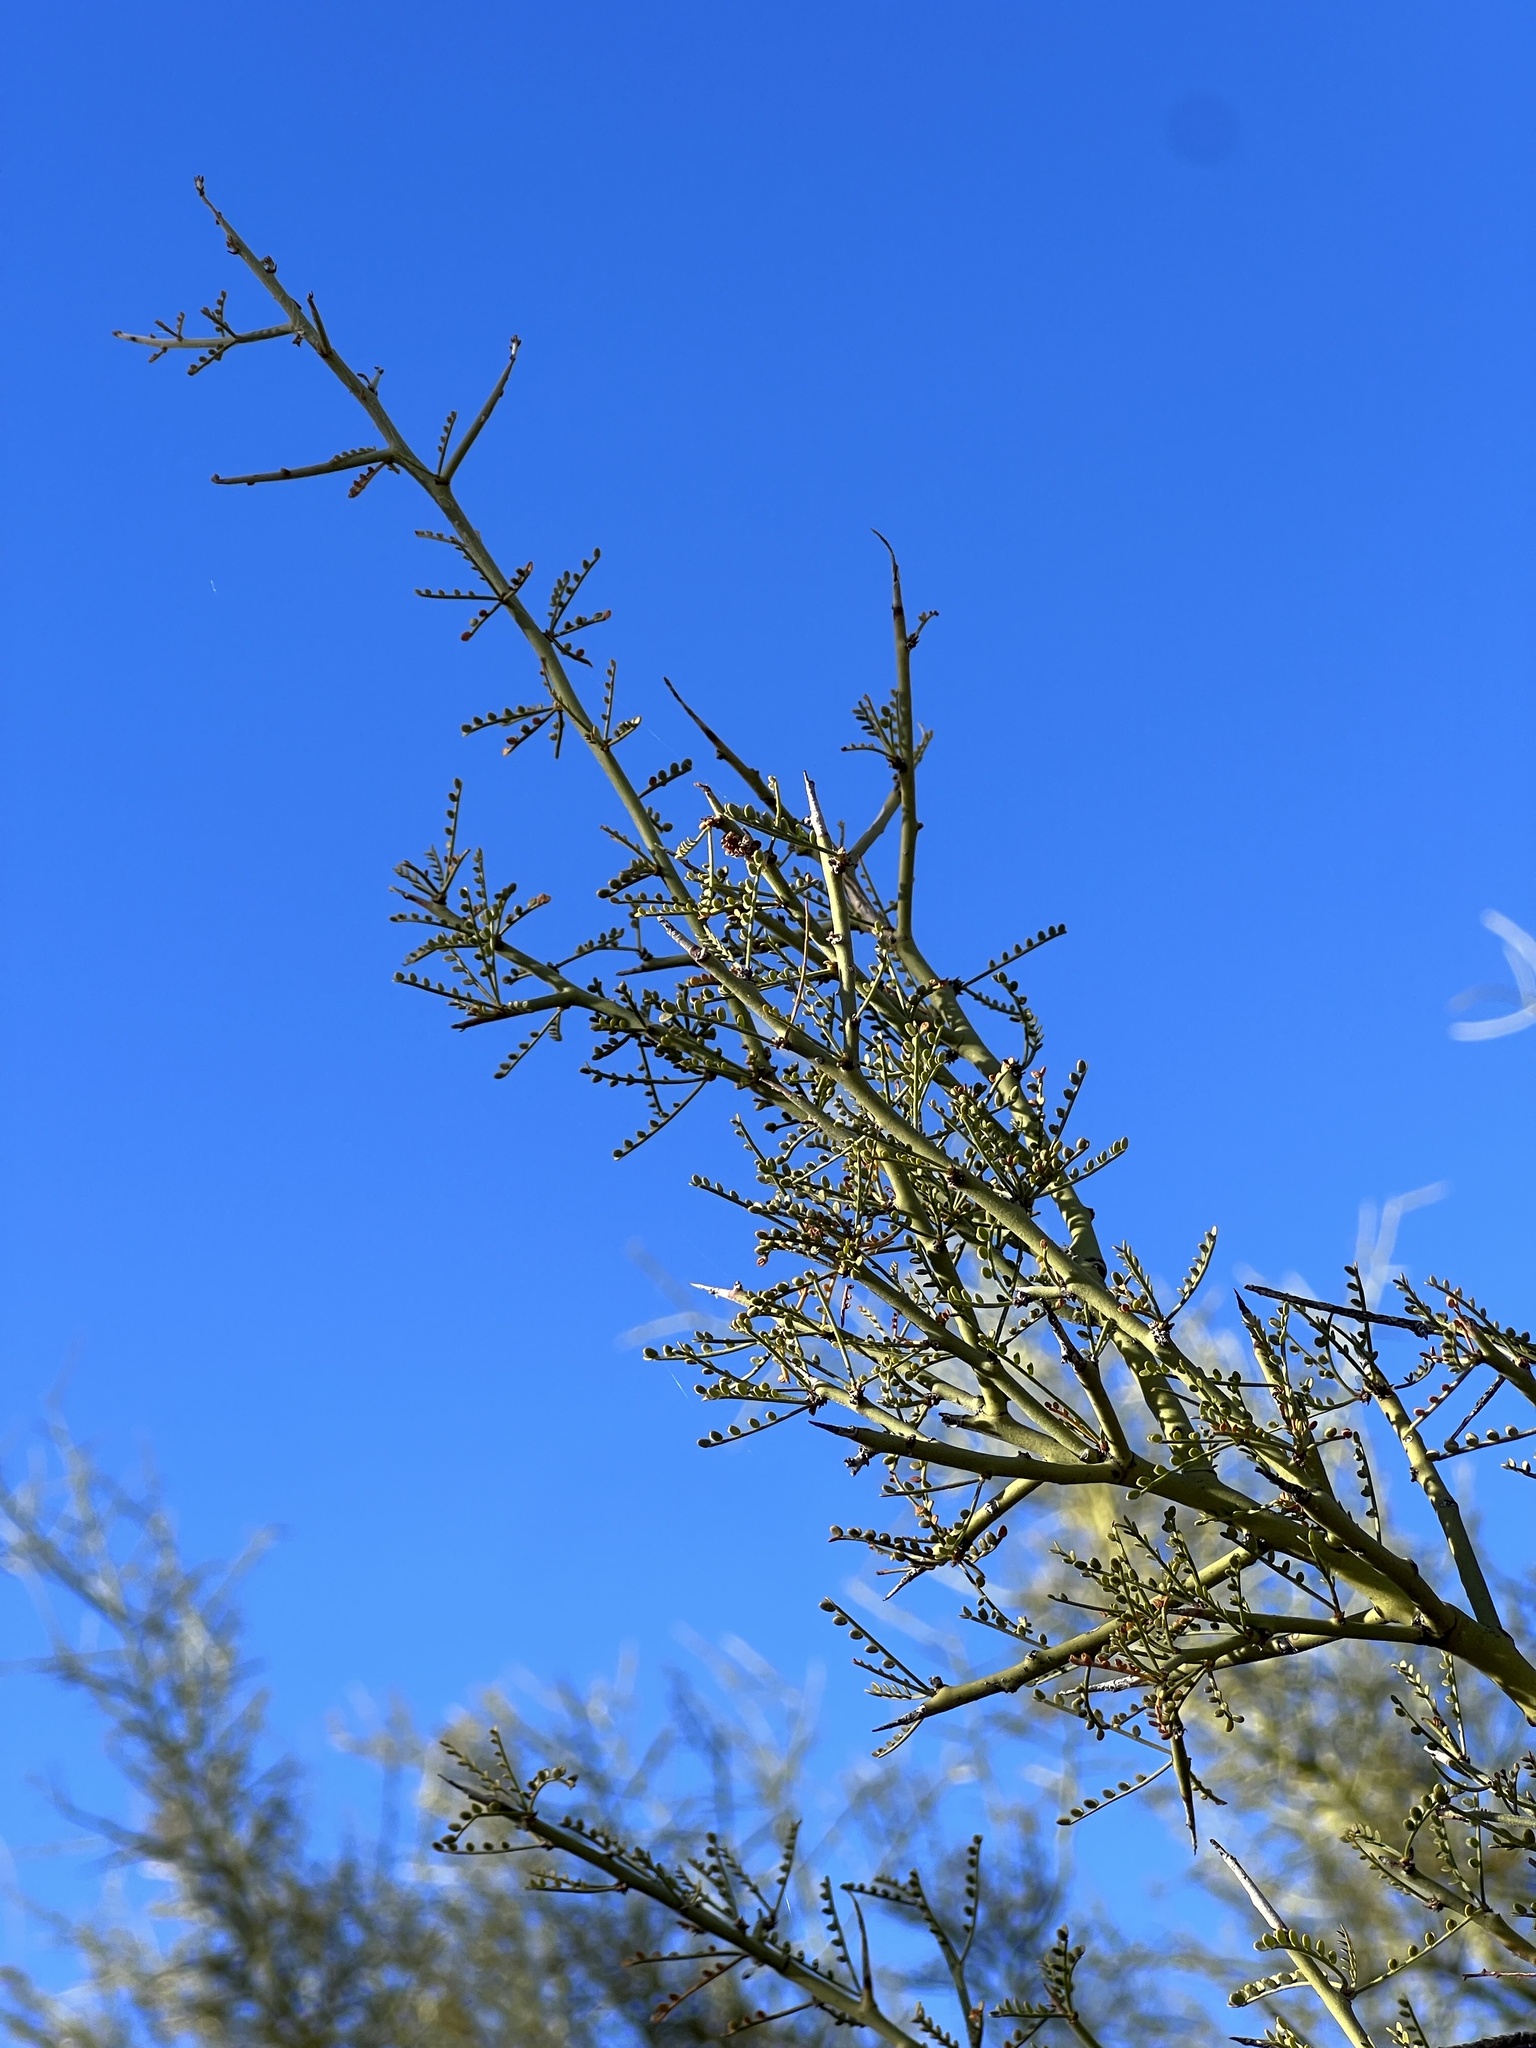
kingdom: Plantae
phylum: Tracheophyta
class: Magnoliopsida
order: Fabales
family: Fabaceae
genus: Parkinsonia
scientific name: Parkinsonia microphylla
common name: Yellow paloverde
